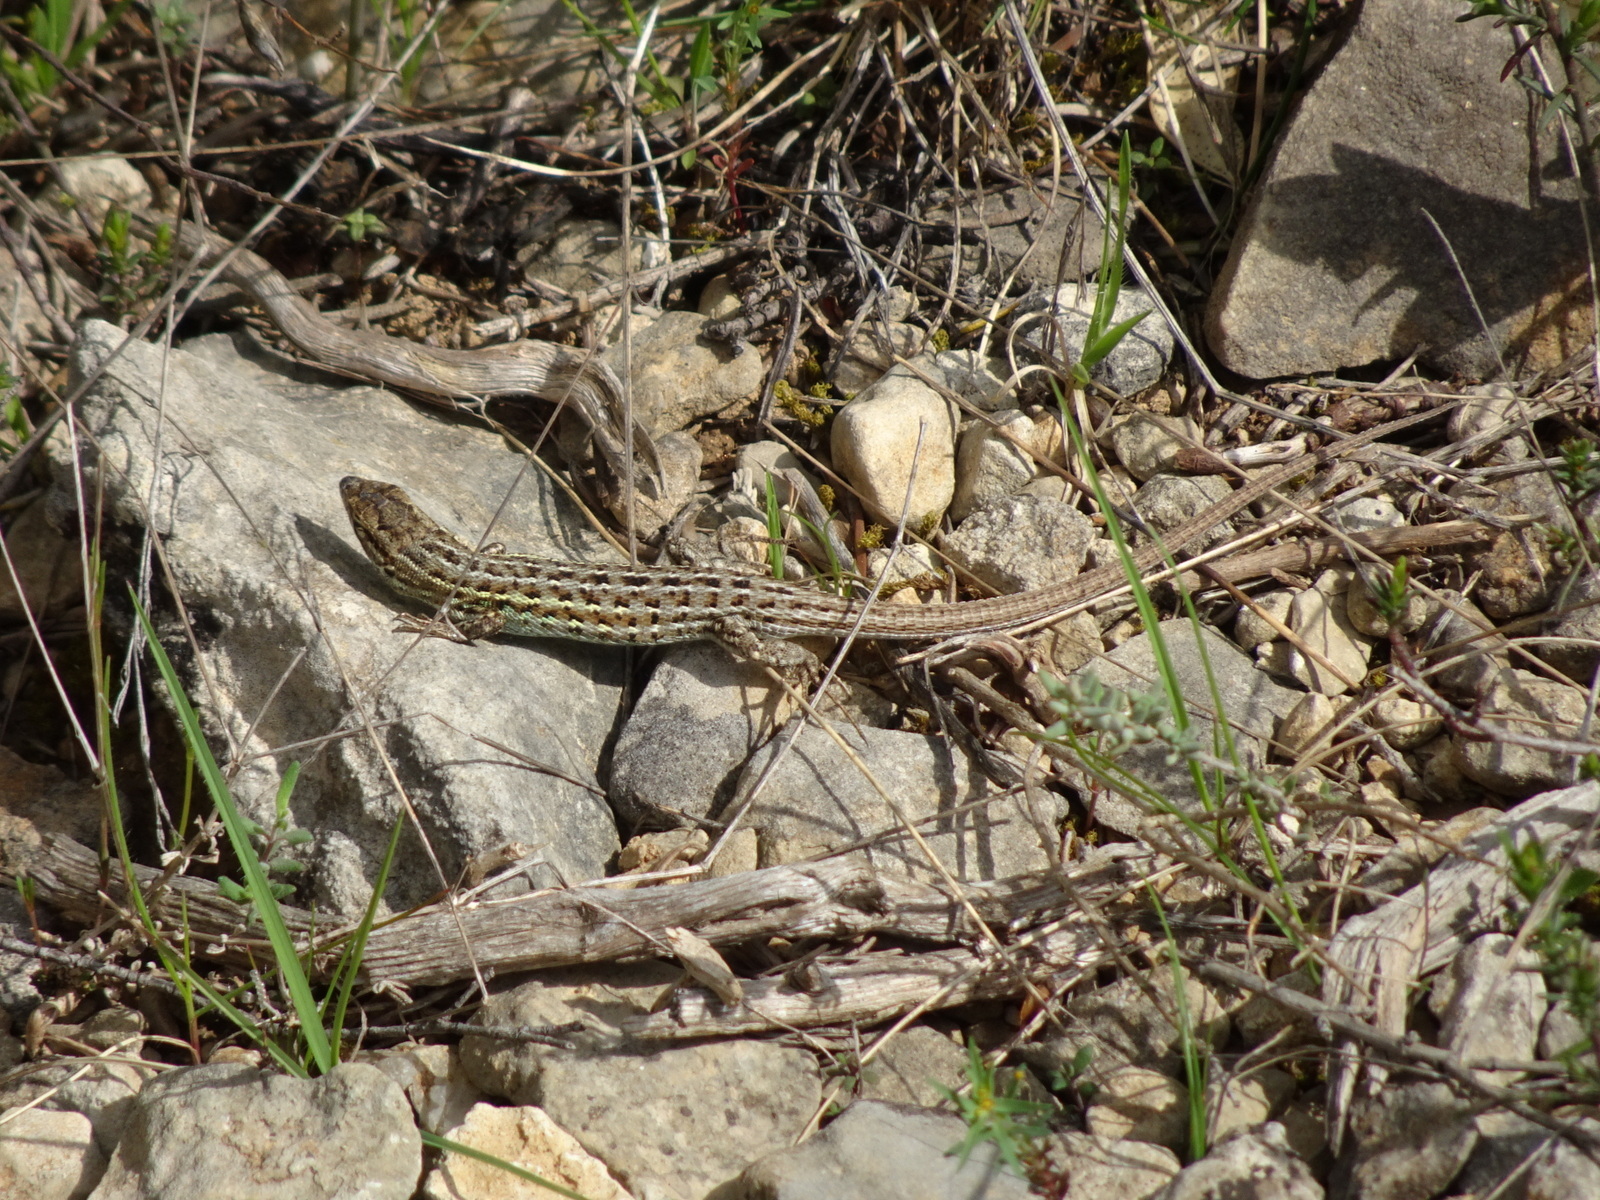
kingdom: Animalia
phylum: Chordata
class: Squamata
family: Lacertidae
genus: Psammodromus
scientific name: Psammodromus edwarsianus
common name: East iberian psammodromus
